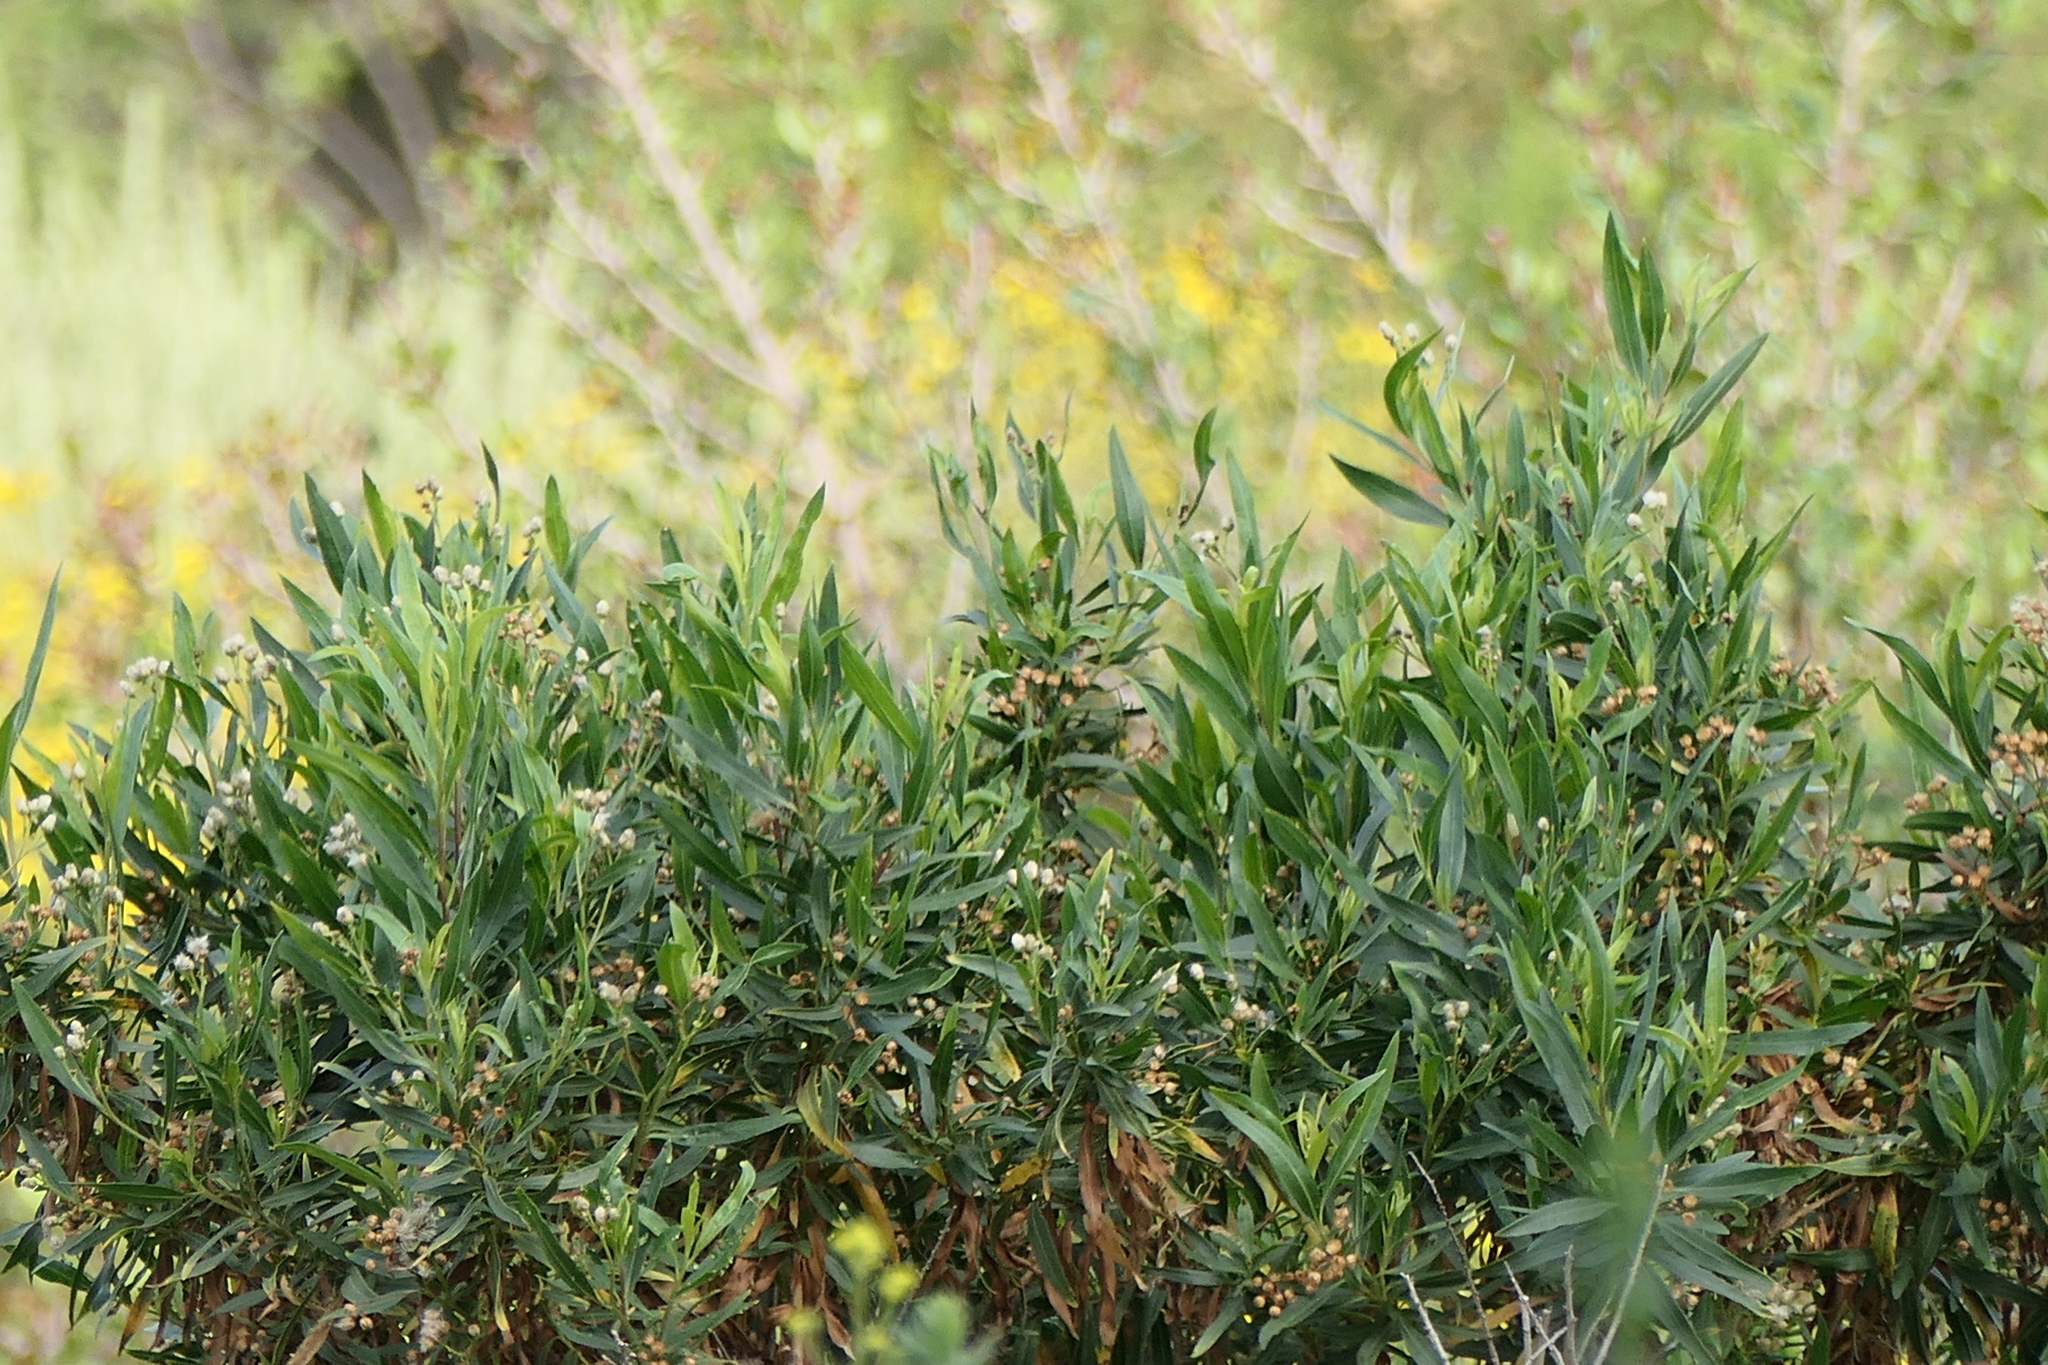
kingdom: Plantae
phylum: Tracheophyta
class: Magnoliopsida
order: Asterales
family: Asteraceae
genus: Baccharis
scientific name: Baccharis salicifolia
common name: Sticky baccharis
